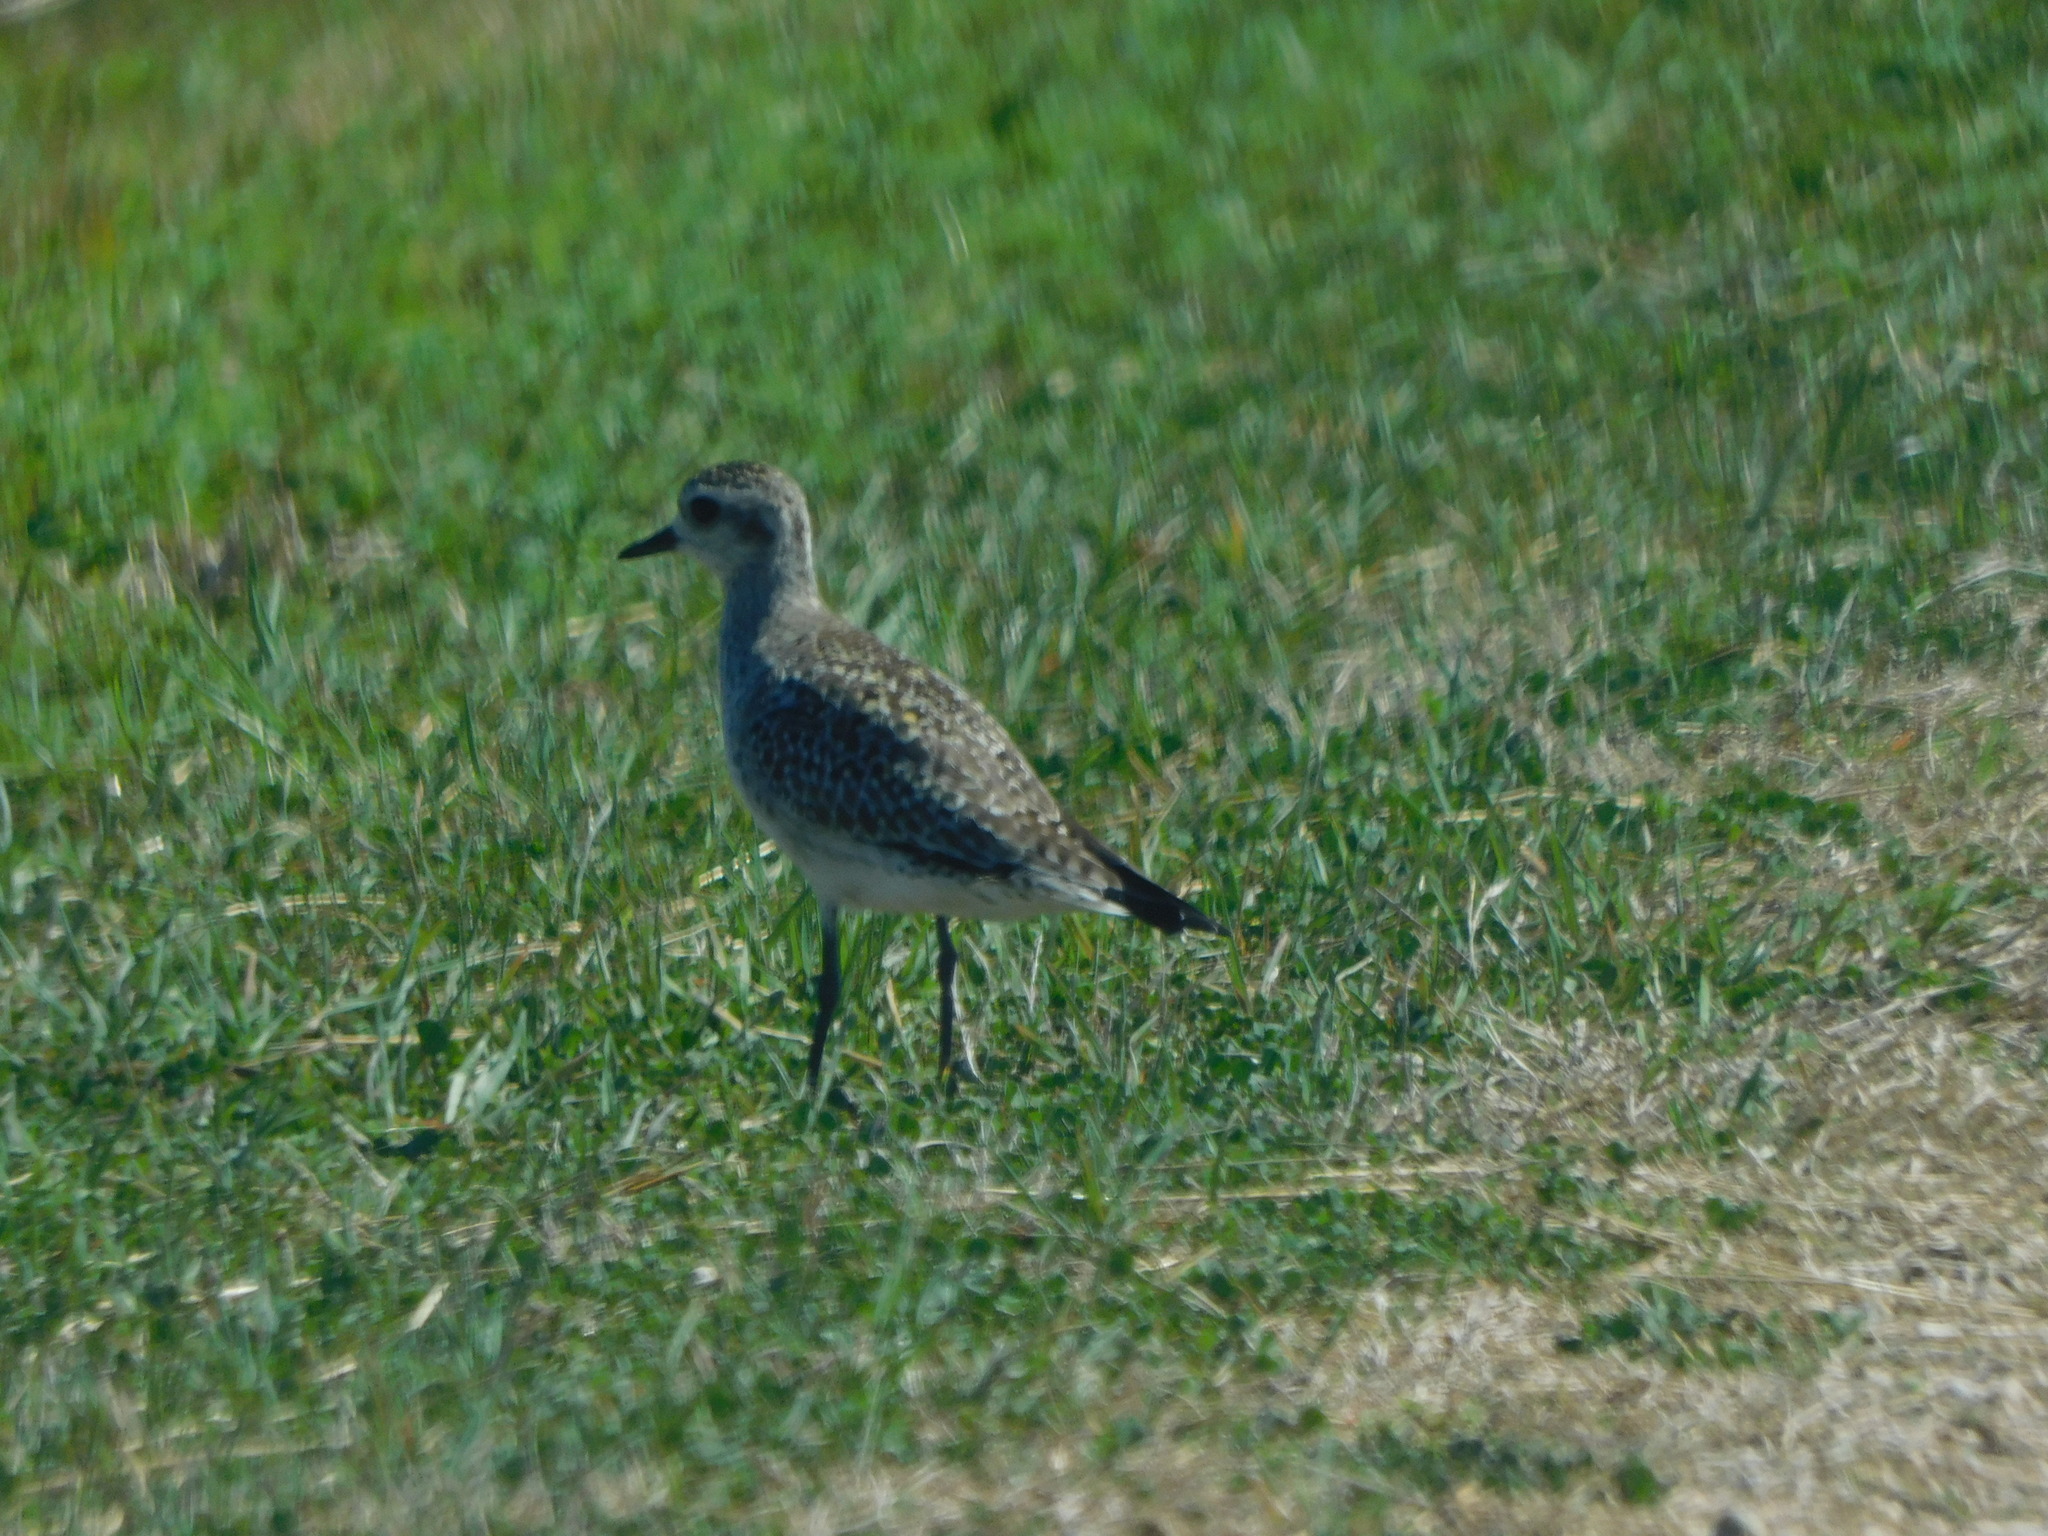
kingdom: Animalia
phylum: Chordata
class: Aves
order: Charadriiformes
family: Charadriidae
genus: Pluvialis
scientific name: Pluvialis dominica
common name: American golden plover
